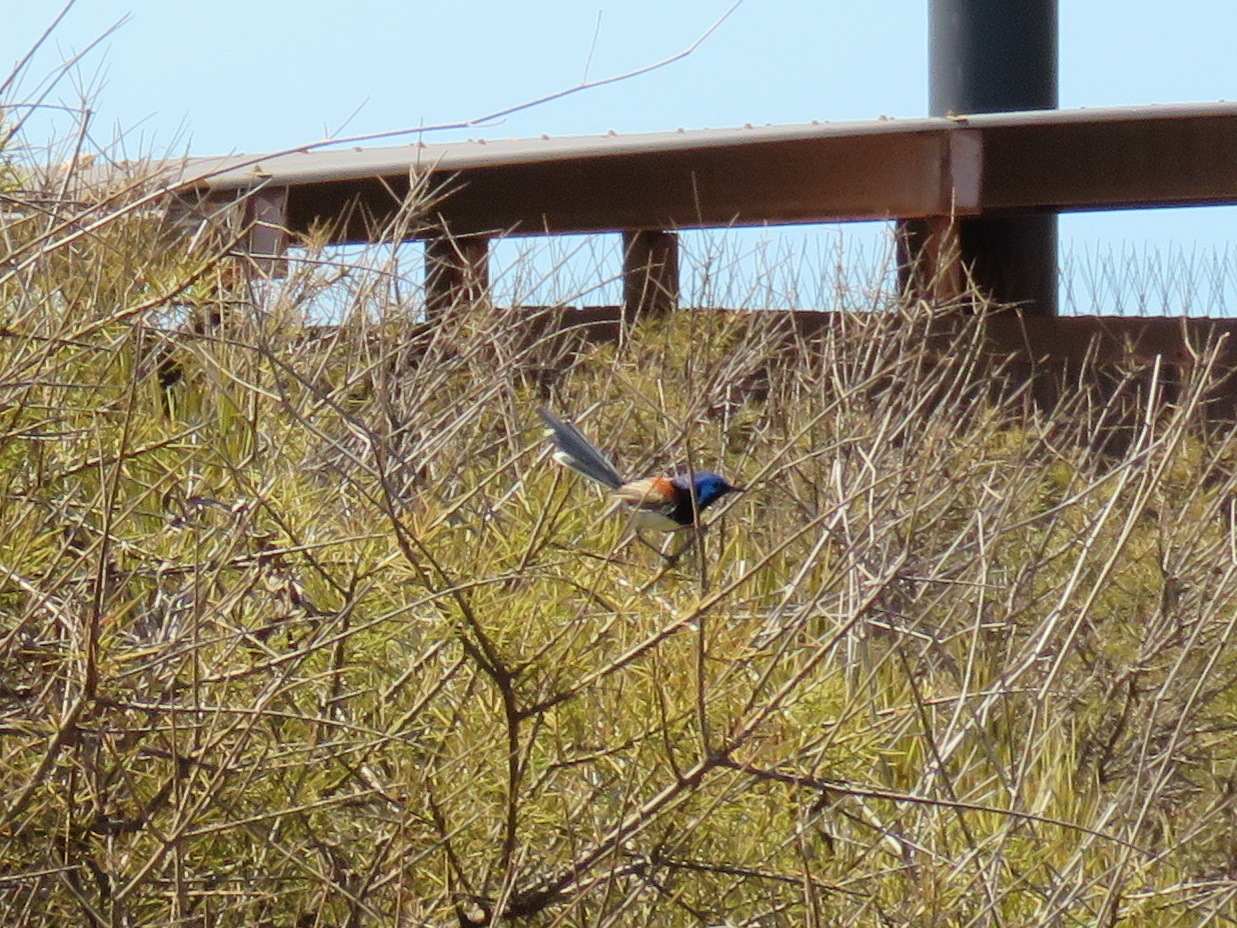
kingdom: Animalia
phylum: Chordata
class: Aves
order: Passeriformes
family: Maluridae
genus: Malurus
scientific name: Malurus assimilis
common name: Purple-backed fairywren
